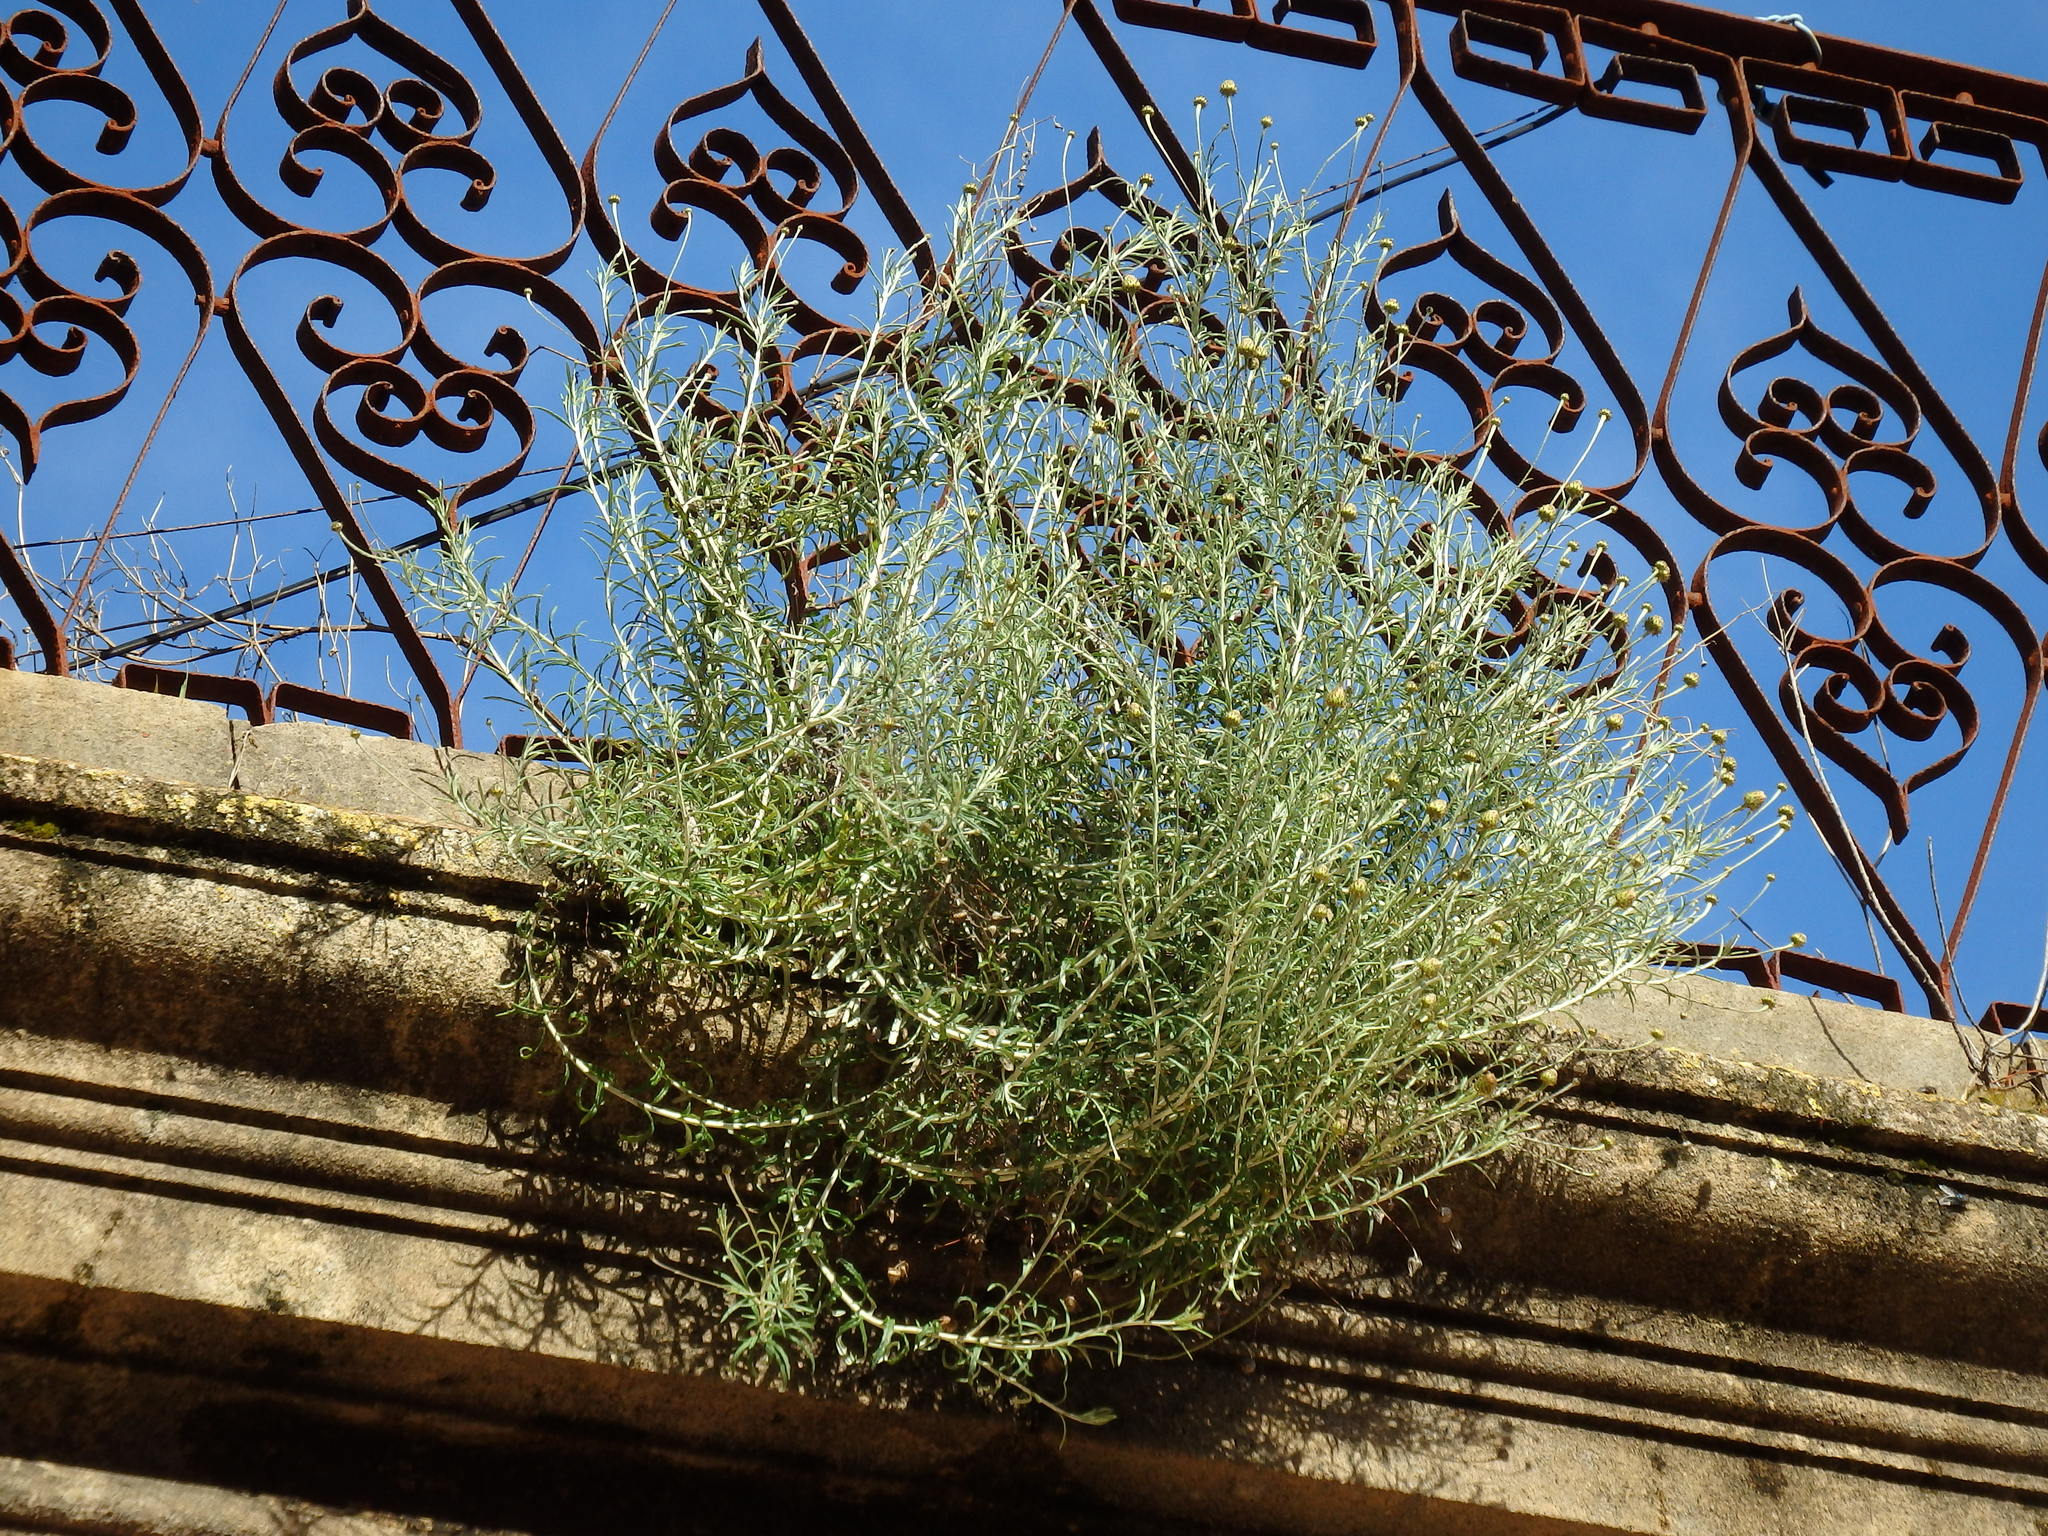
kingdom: Plantae
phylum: Tracheophyta
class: Magnoliopsida
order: Asterales
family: Asteraceae
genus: Phagnalon
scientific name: Phagnalon saxatile
